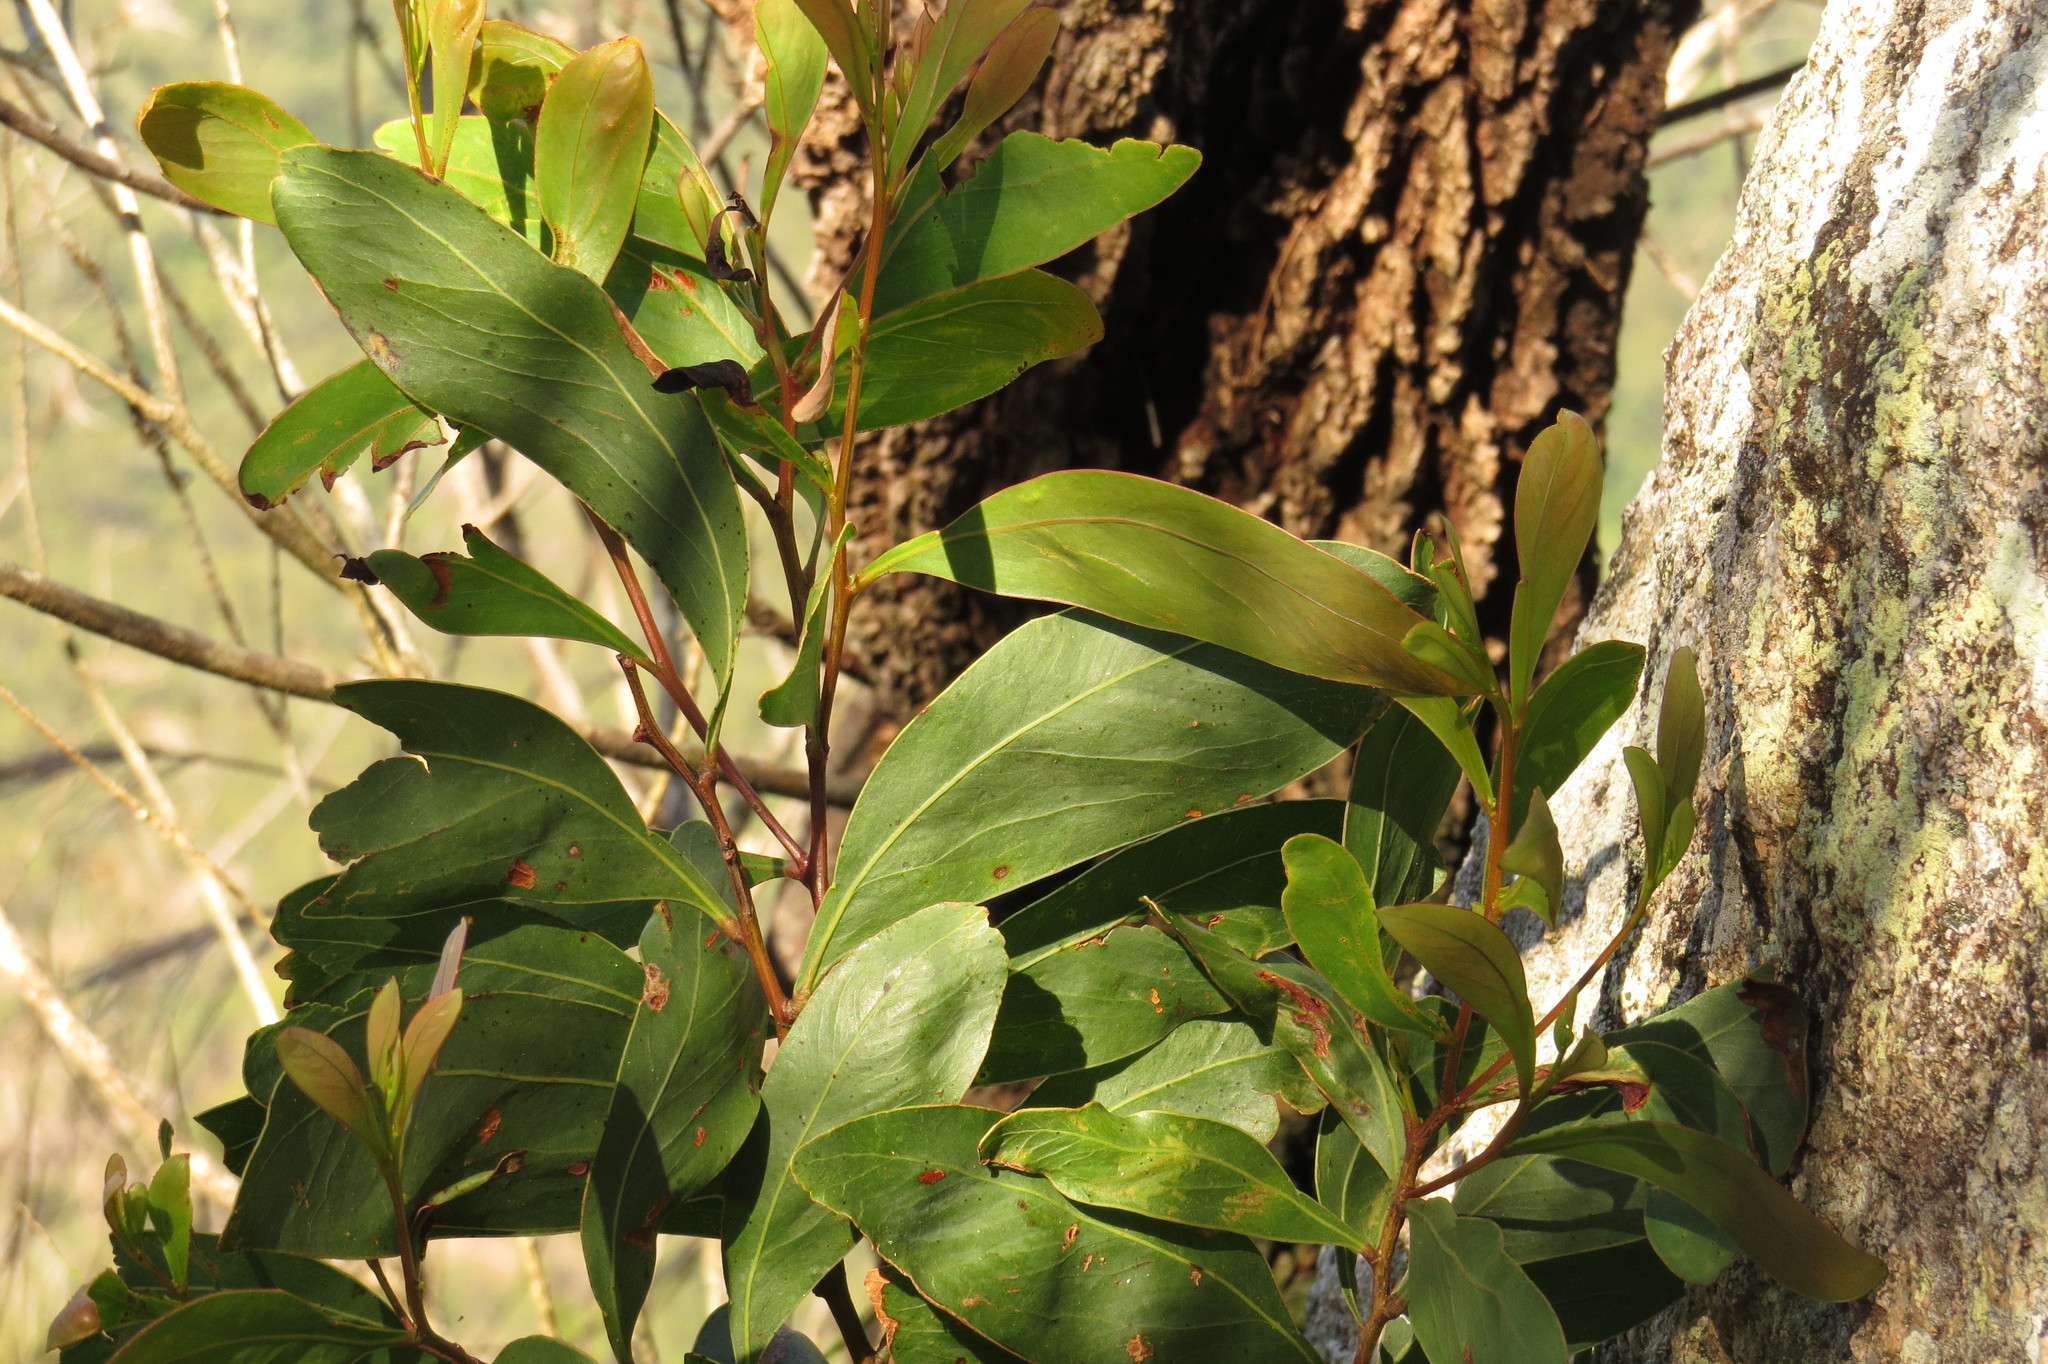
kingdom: Plantae
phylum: Tracheophyta
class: Magnoliopsida
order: Fabales
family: Fabaceae
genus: Acacia
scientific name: Acacia falciformis
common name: Tanning wattle
